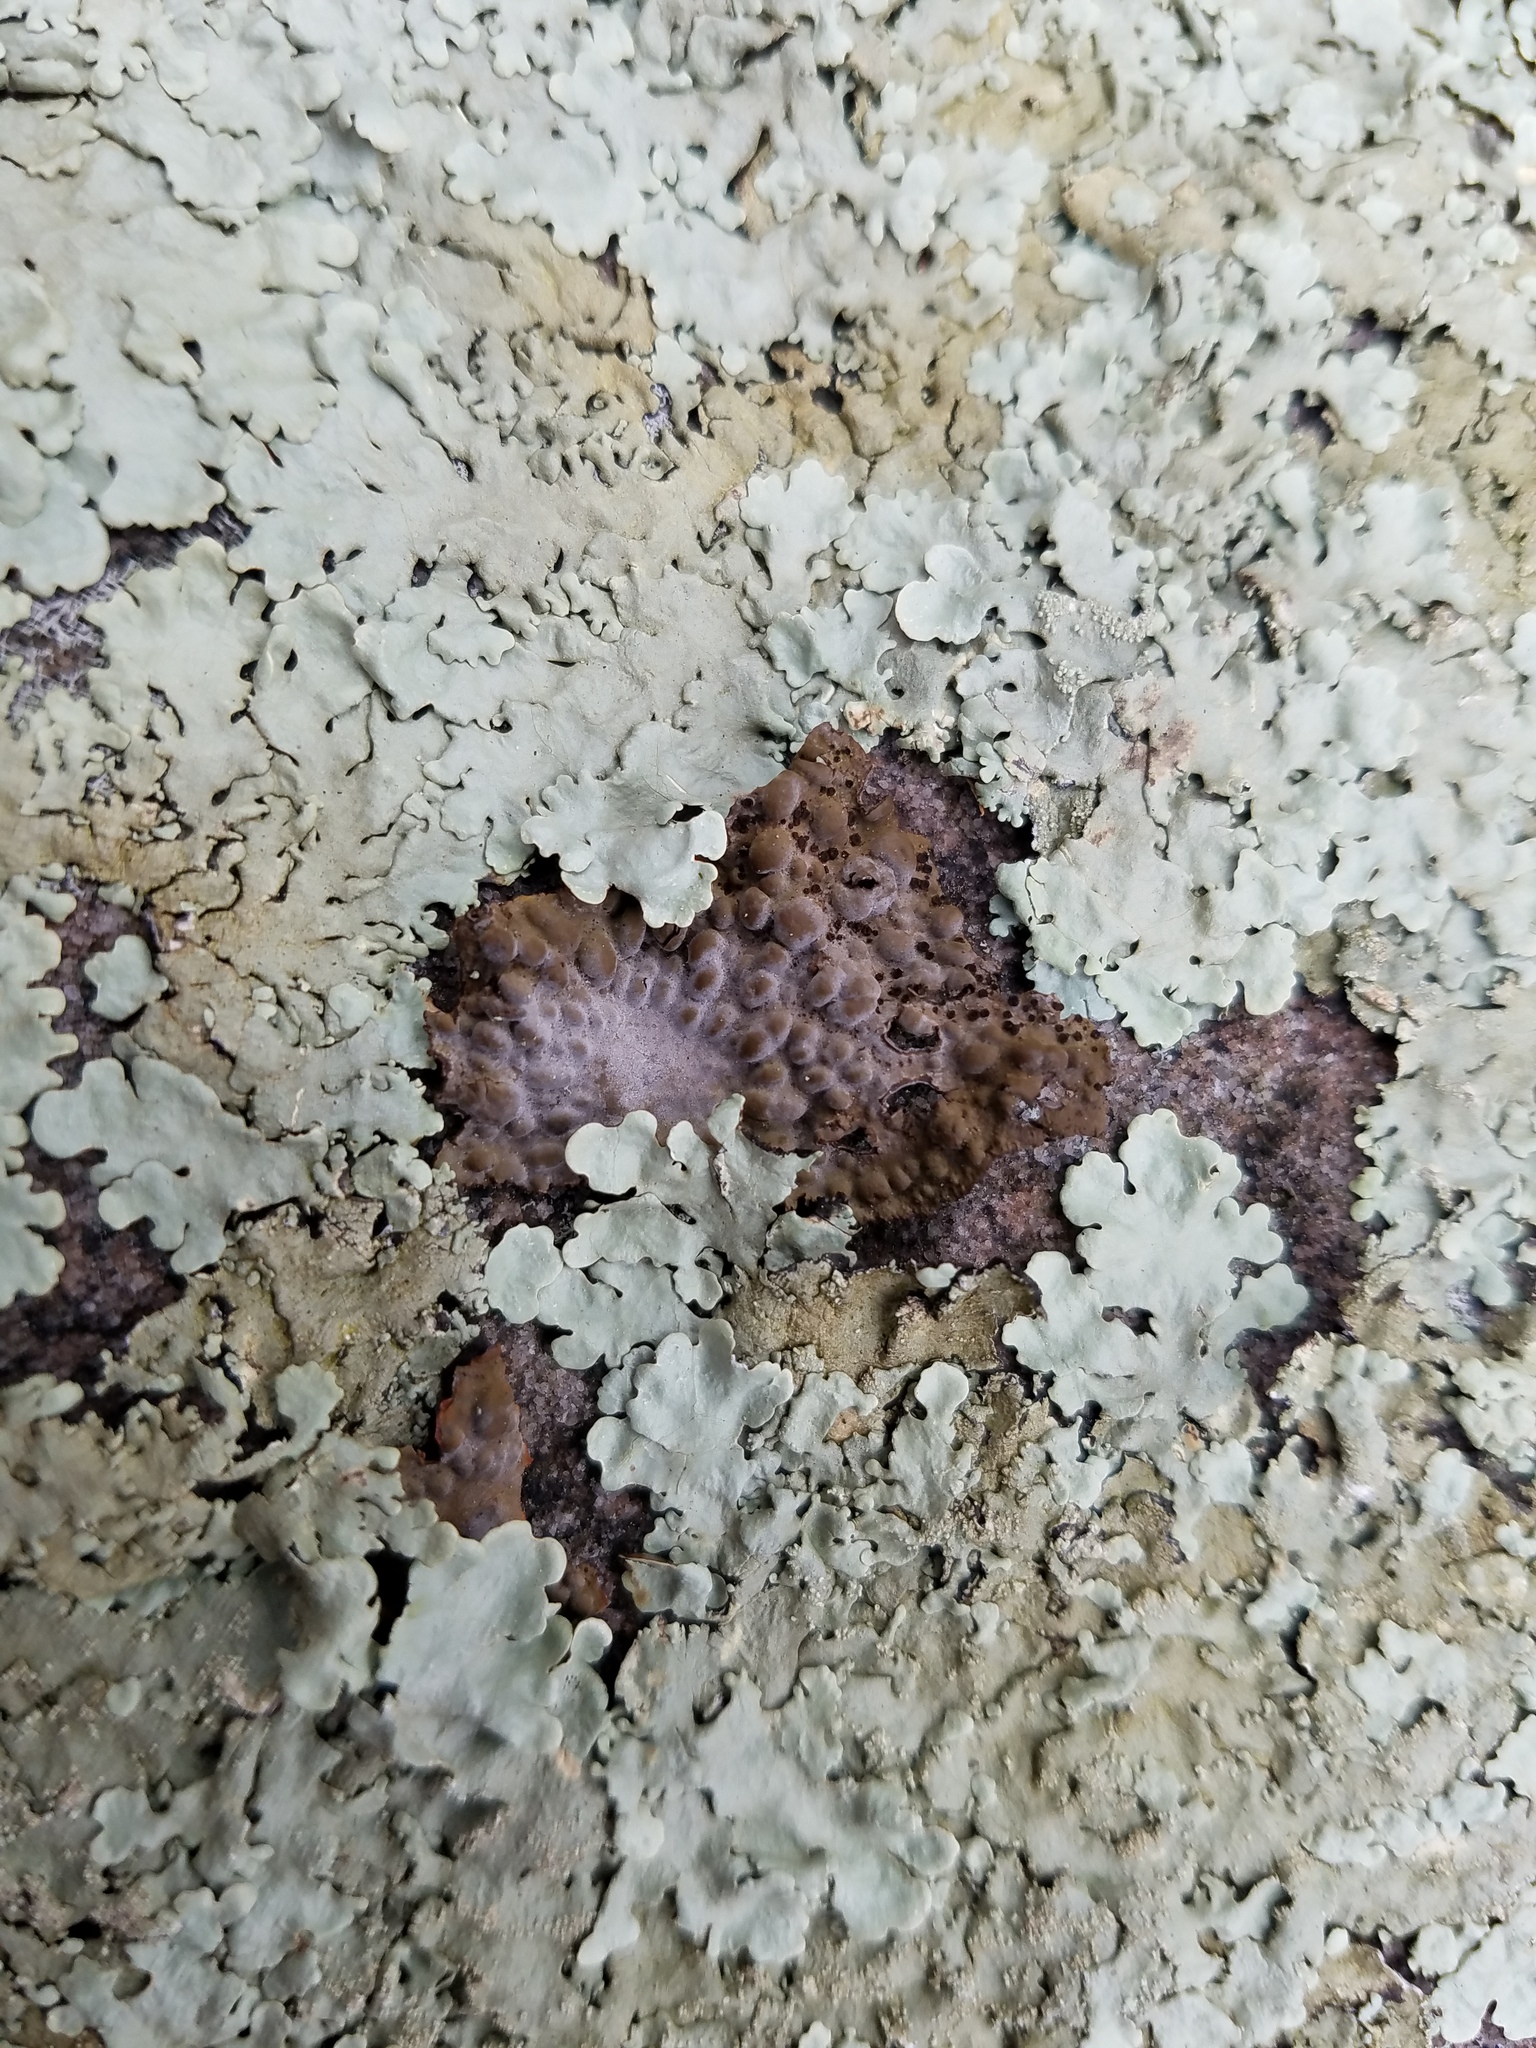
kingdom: Fungi
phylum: Ascomycota
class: Lecanoromycetes
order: Umbilicariales
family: Umbilicariaceae
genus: Lasallia
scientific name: Lasallia papulosa
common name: Common toadskin lichen
